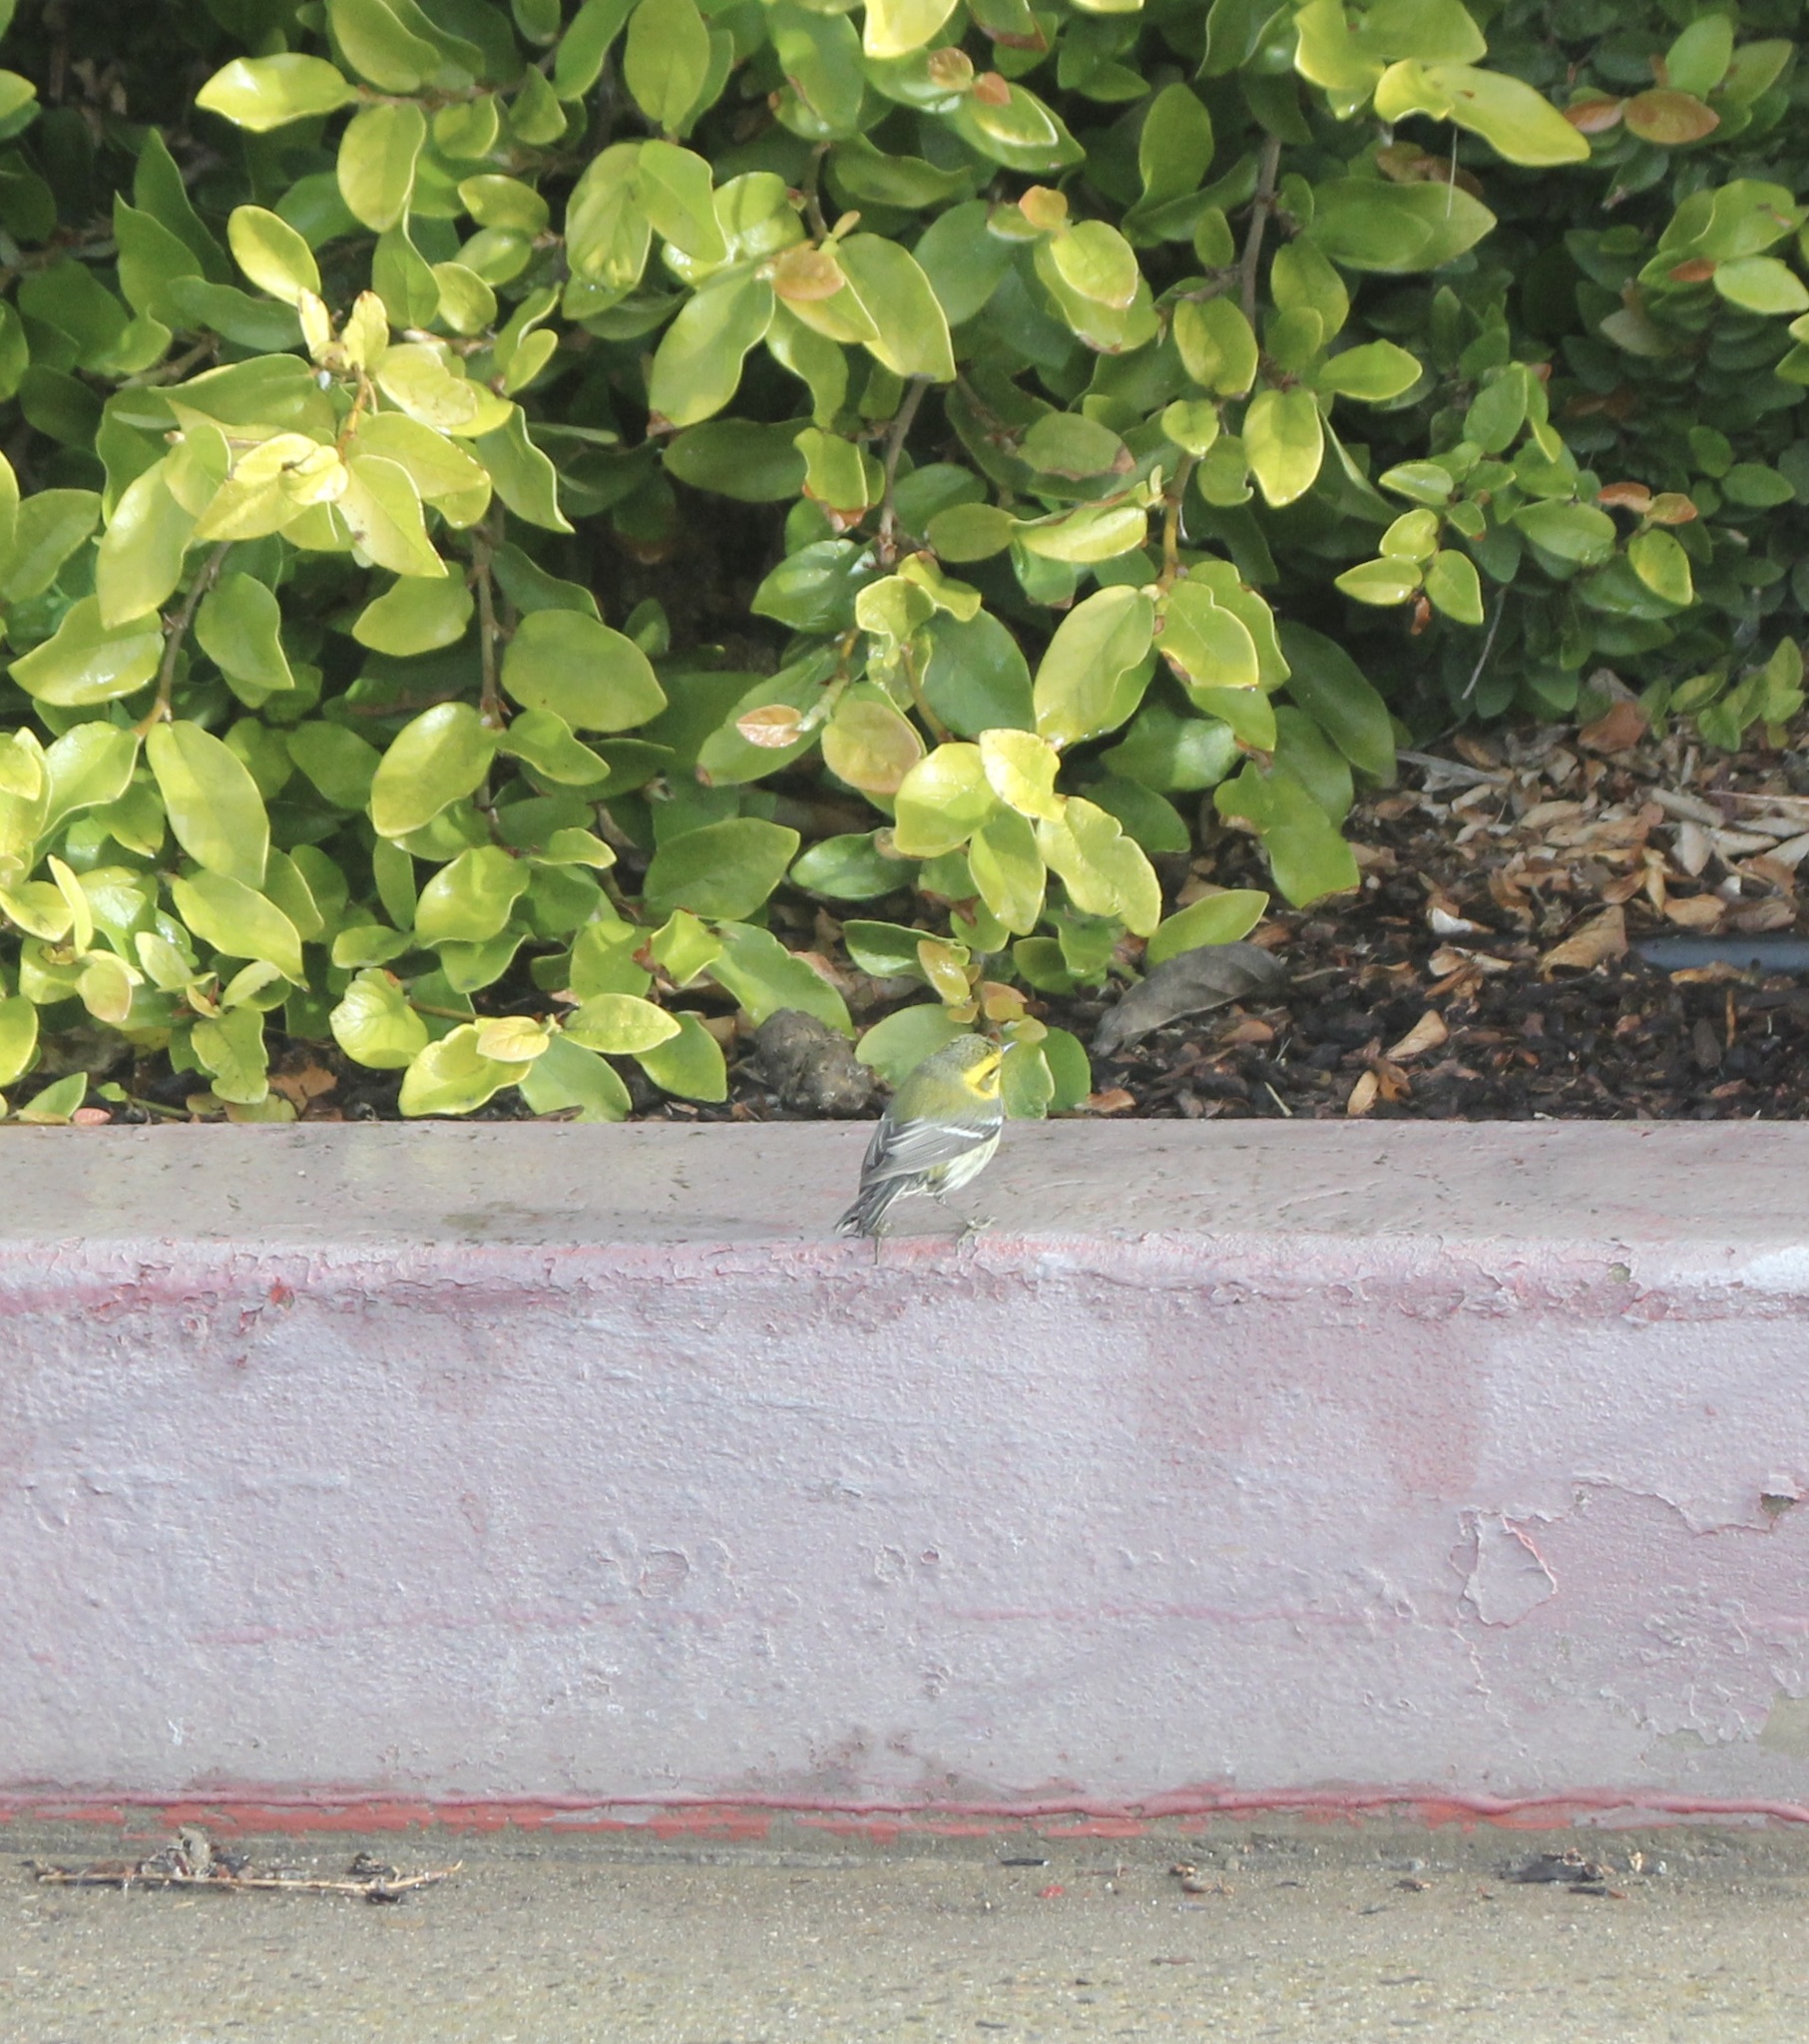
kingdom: Animalia
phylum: Chordata
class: Aves
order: Passeriformes
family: Parulidae
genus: Setophaga
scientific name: Setophaga townsendi
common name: Townsend's warbler
